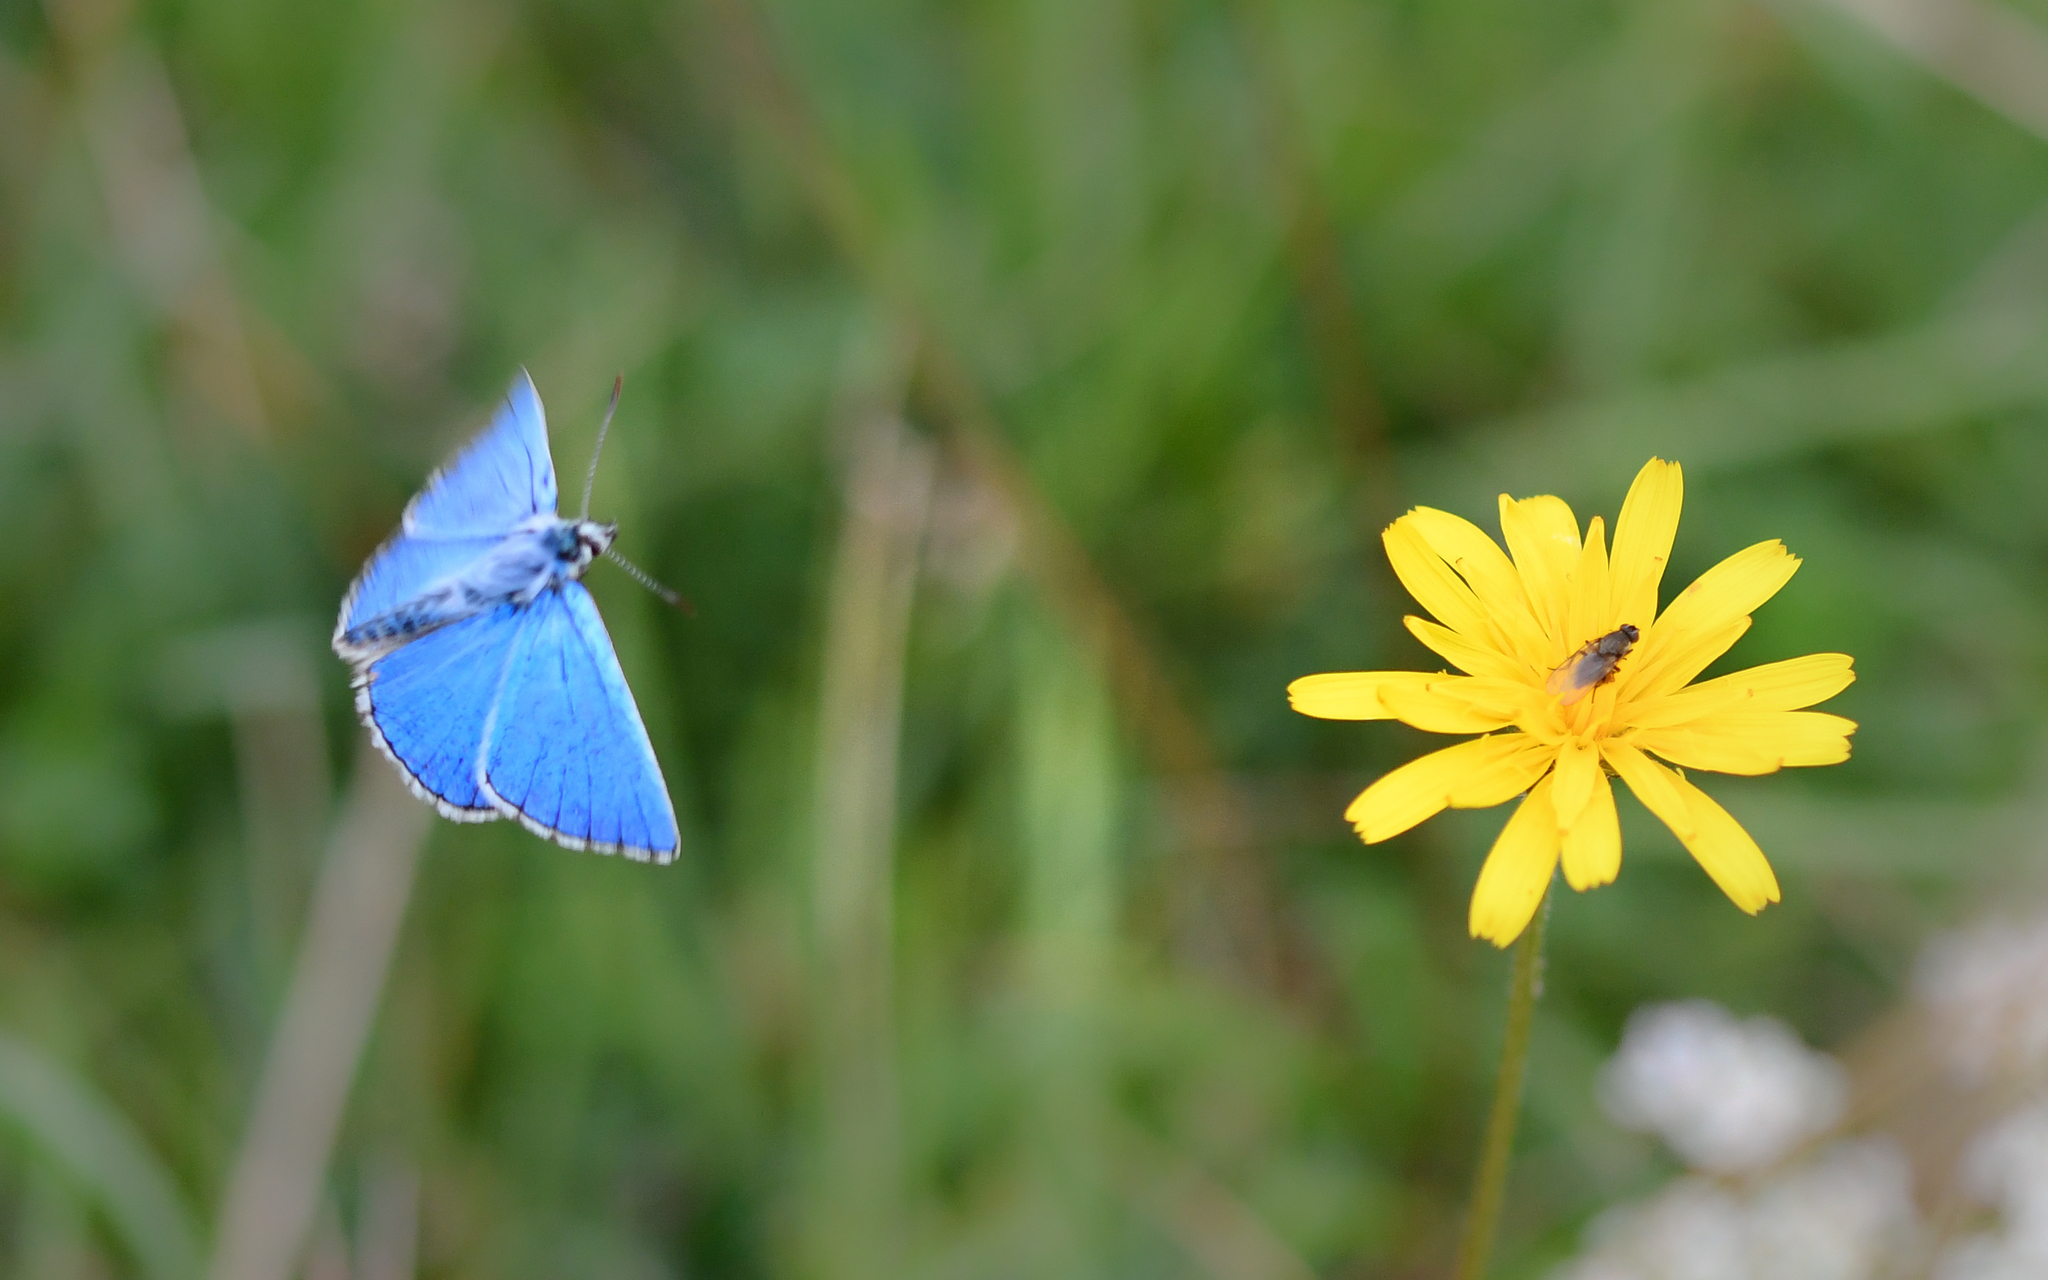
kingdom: Animalia
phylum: Arthropoda
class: Insecta
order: Lepidoptera
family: Lycaenidae
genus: Lysandra
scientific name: Lysandra bellargus
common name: Adonis blue
